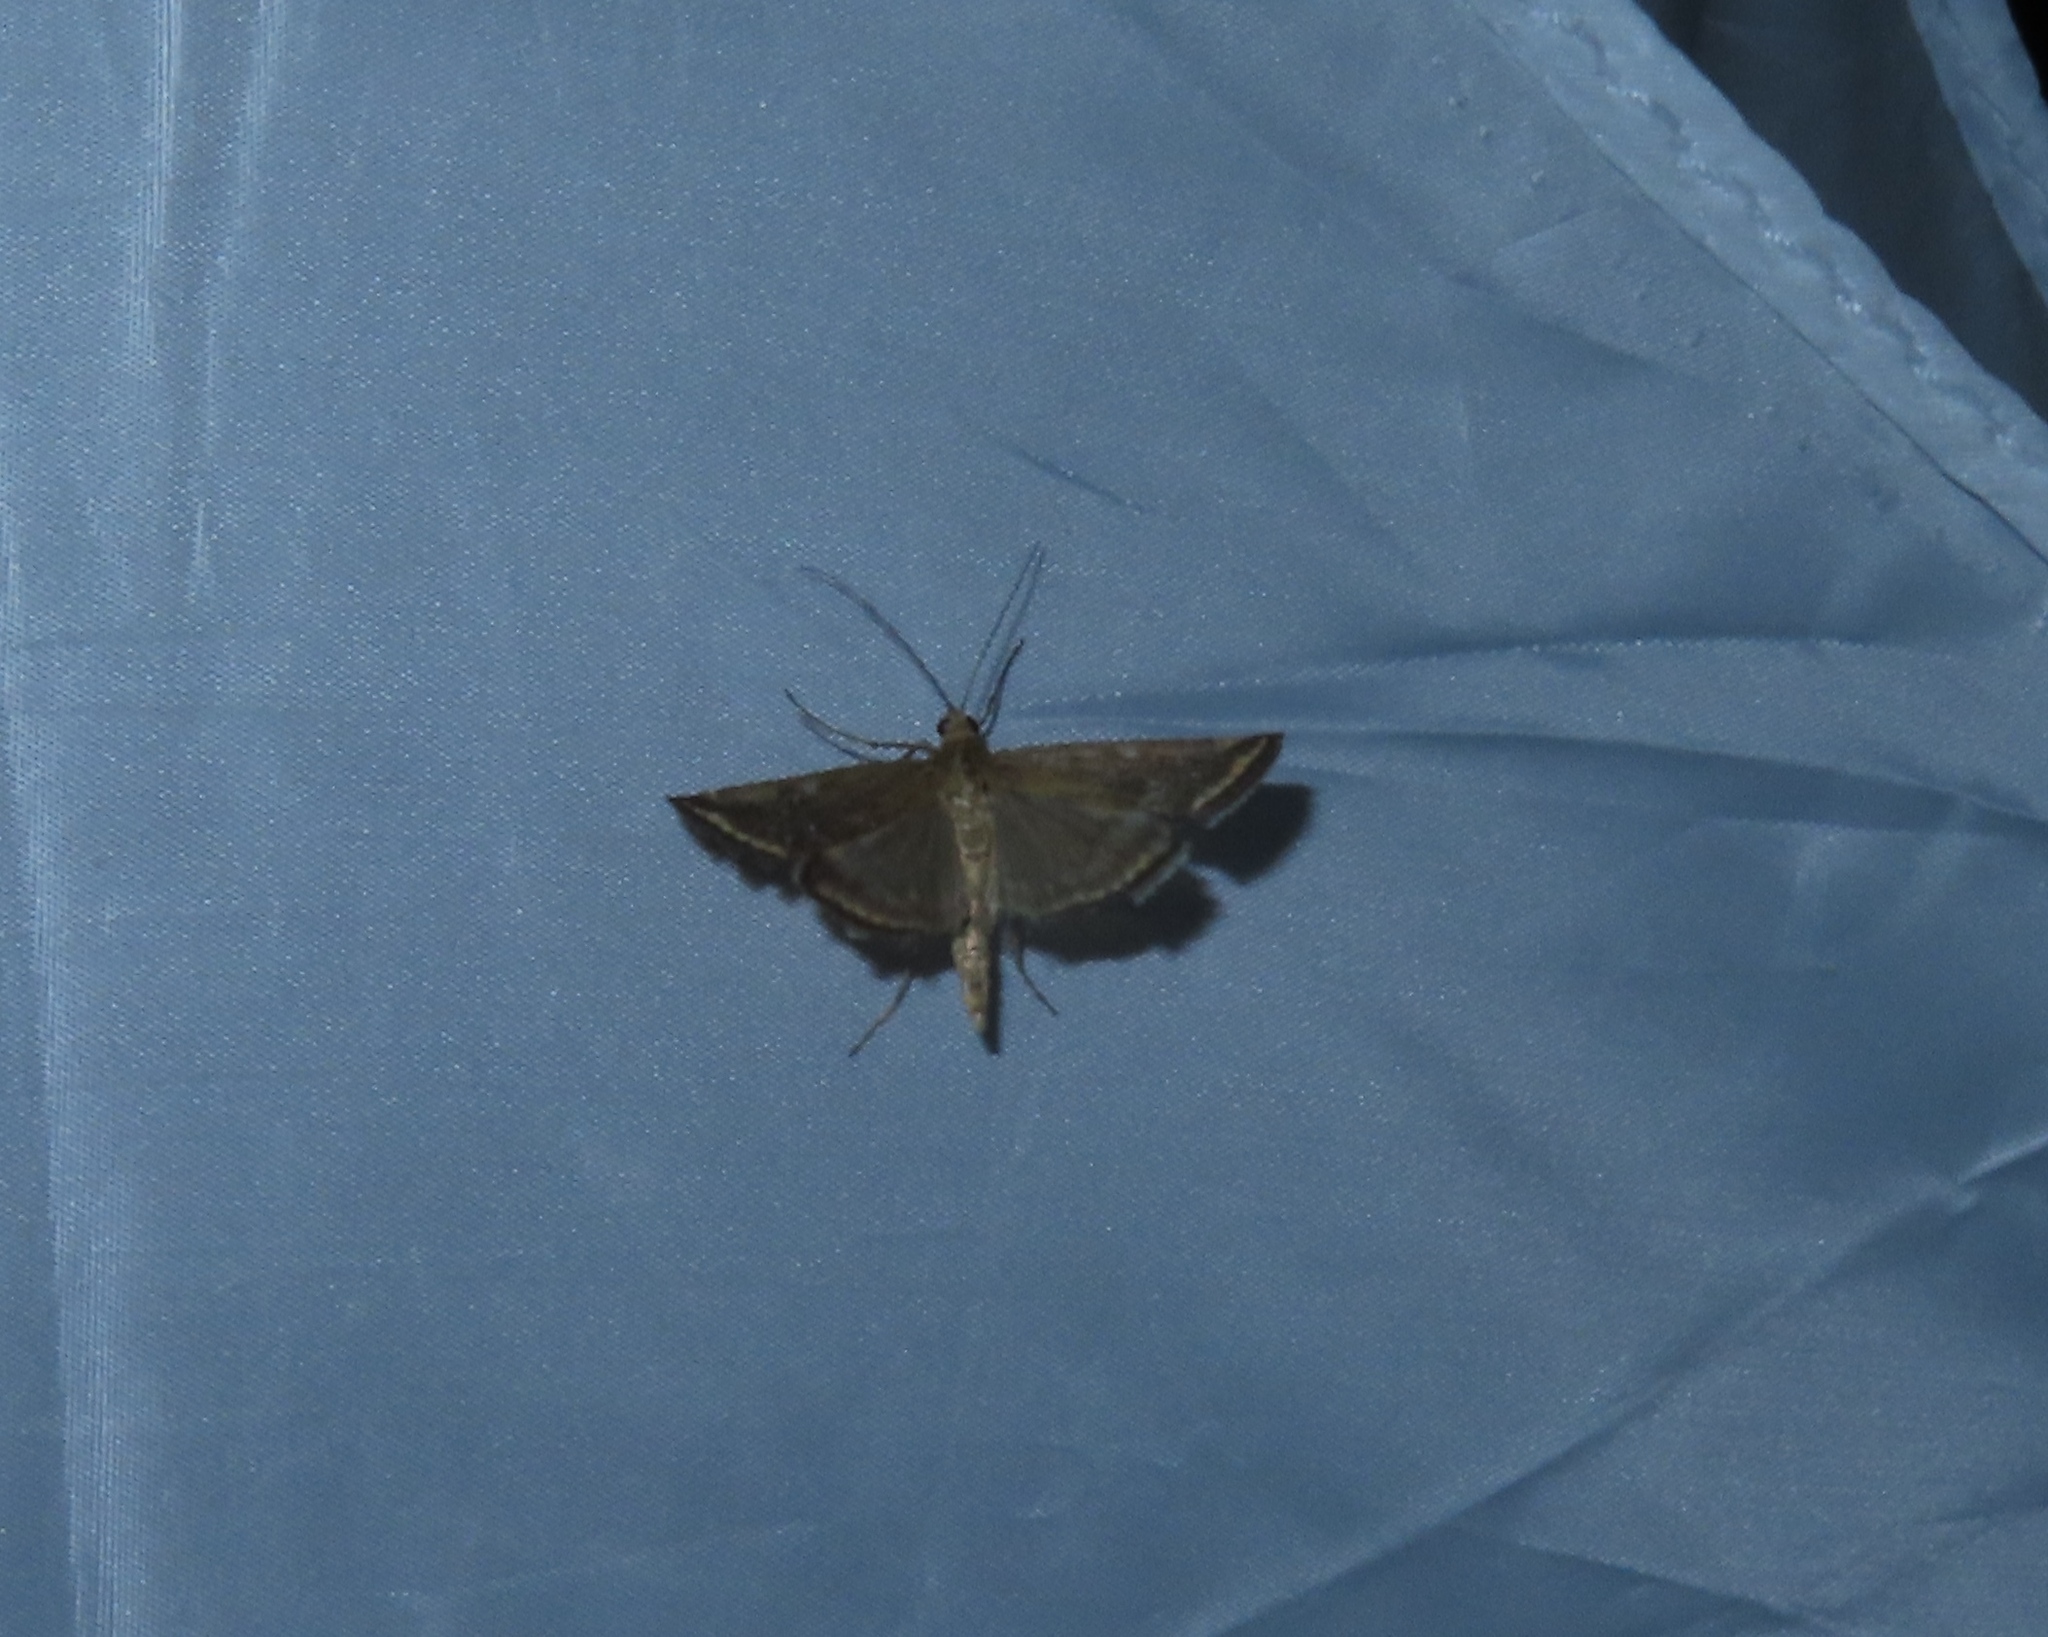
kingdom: Animalia
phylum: Arthropoda
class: Insecta
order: Lepidoptera
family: Crambidae
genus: Loxostege
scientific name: Loxostege sticticalis
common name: Crambid moth
